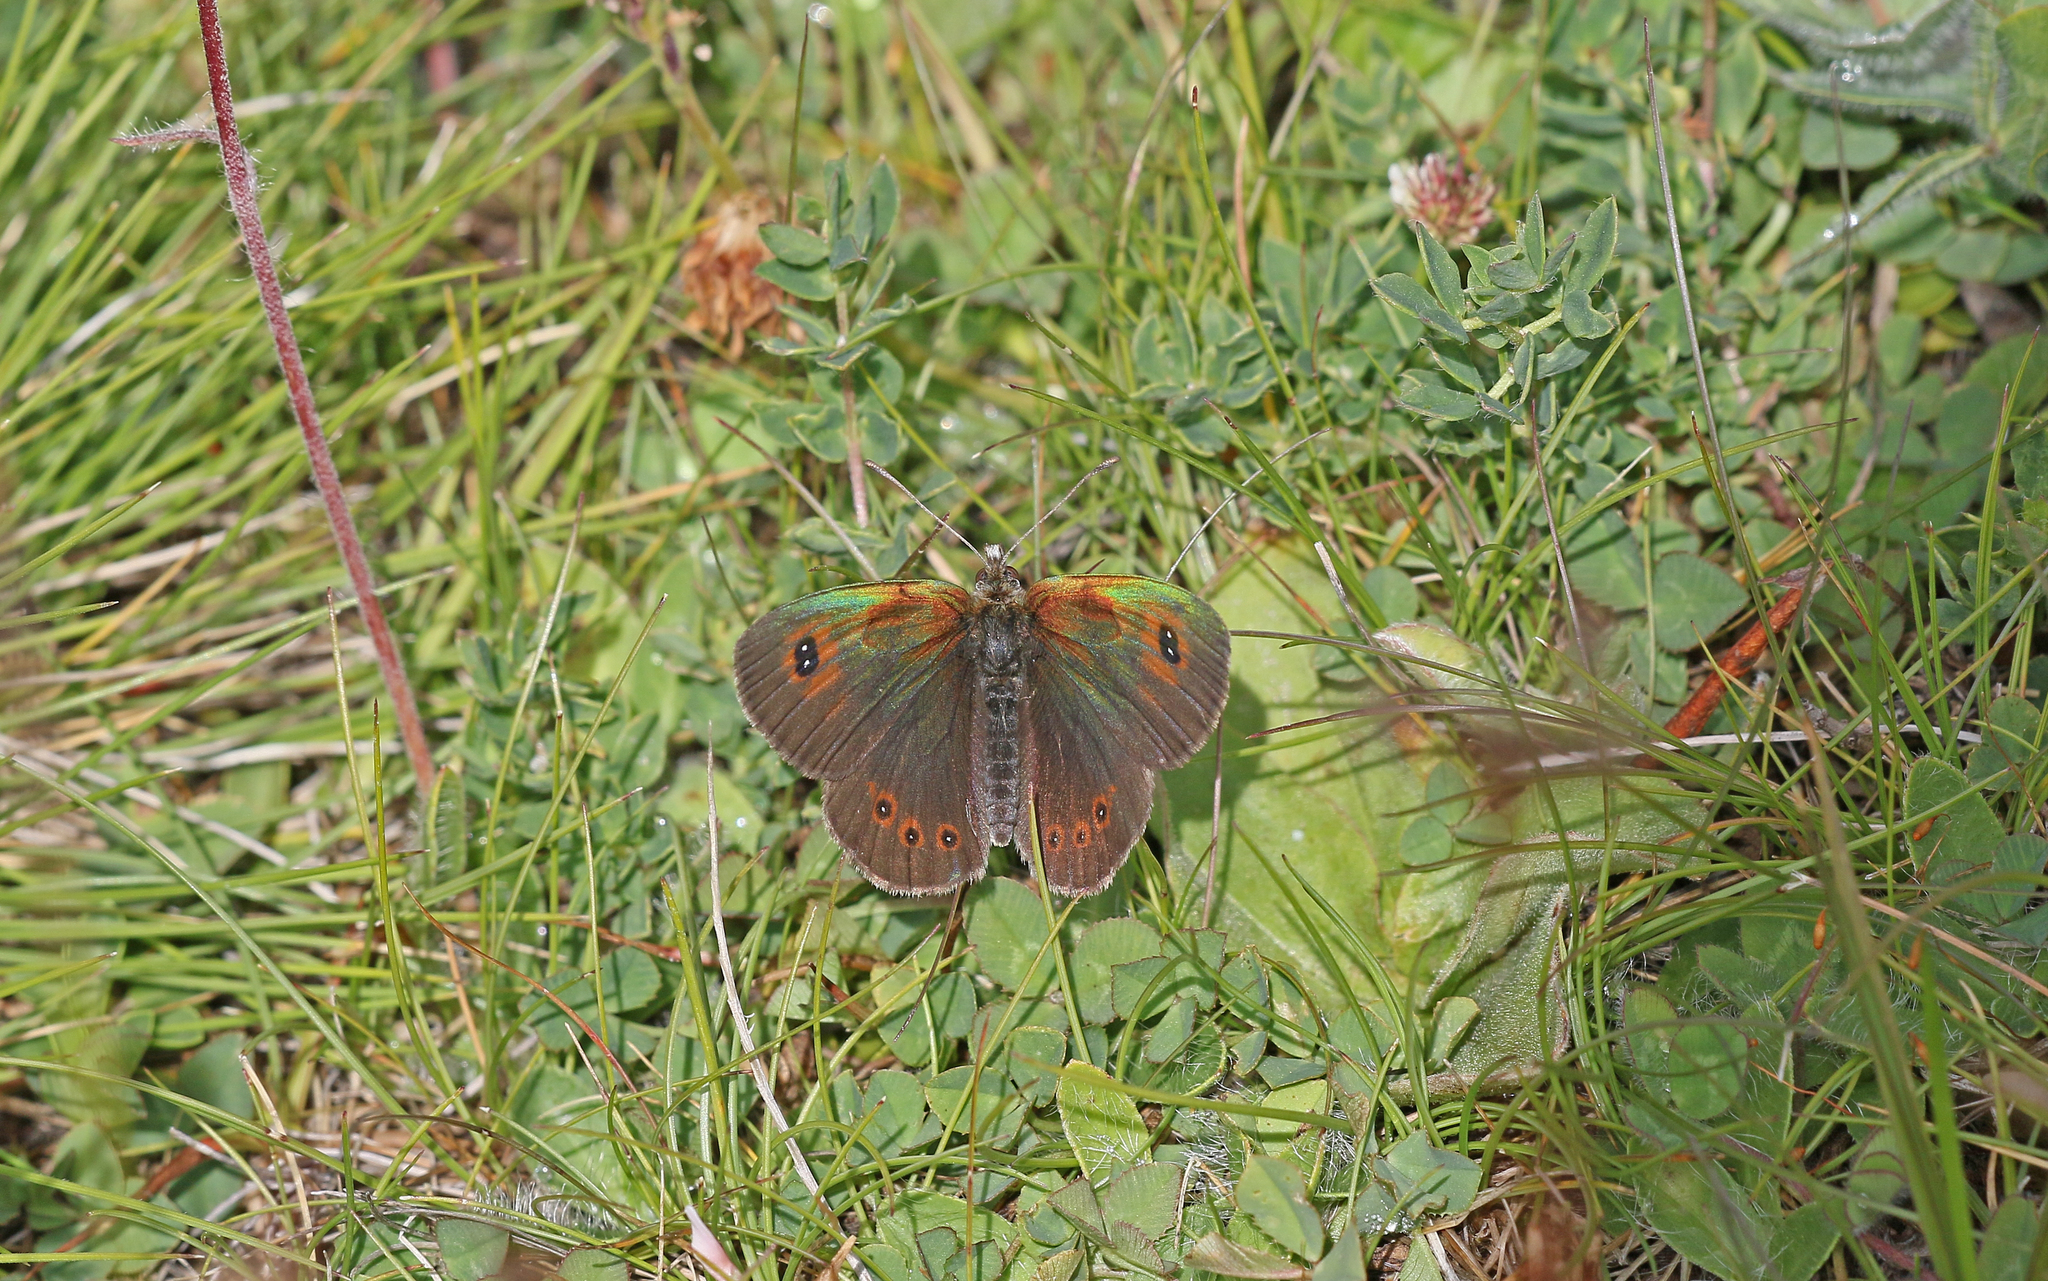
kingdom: Animalia
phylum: Arthropoda
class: Insecta
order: Lepidoptera
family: Nymphalidae
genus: Erebia
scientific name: Erebia cassioides
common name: Common brassy ringlet
